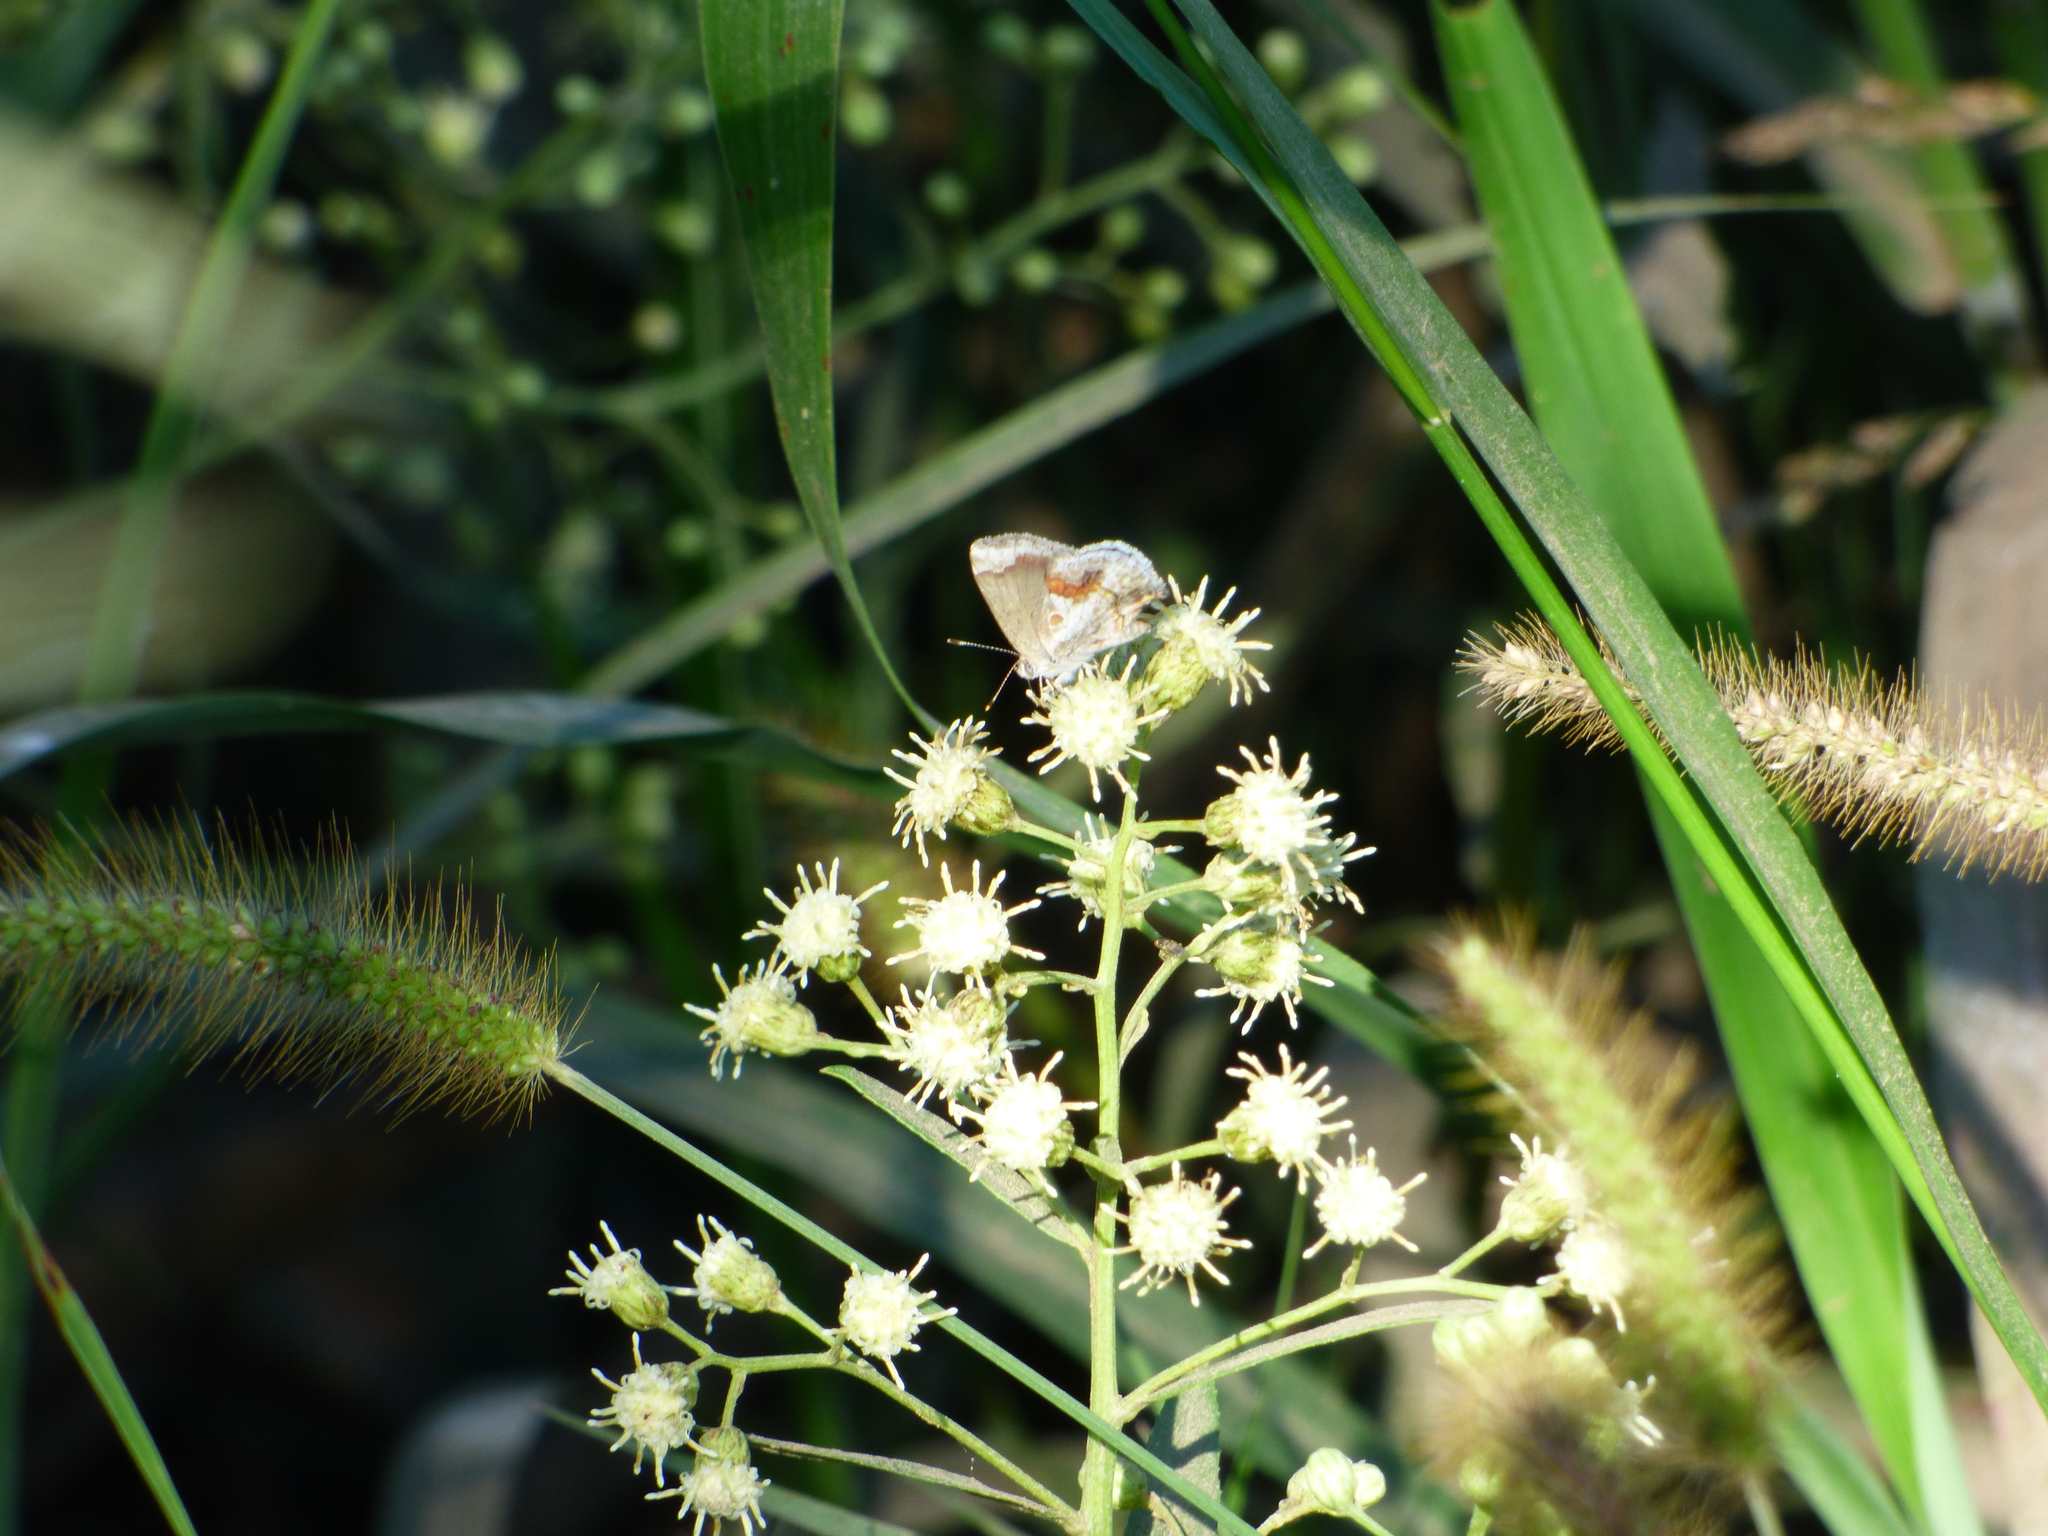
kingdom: Animalia
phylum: Arthropoda
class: Insecta
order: Lepidoptera
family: Lycaenidae
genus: Strymon
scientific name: Strymon bazochii
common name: Lantana scrub-hairstreak
